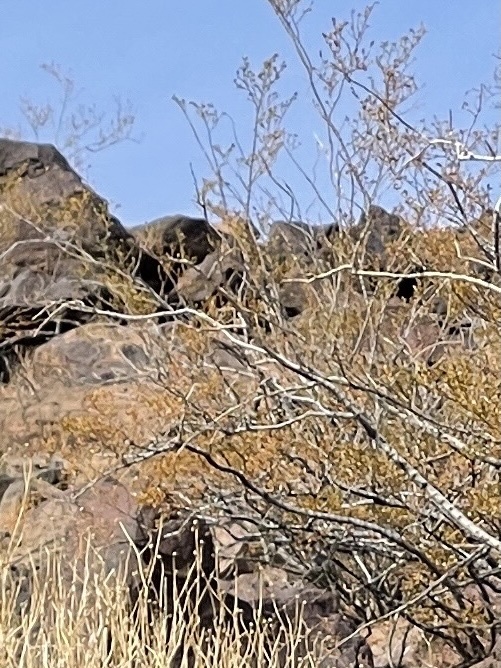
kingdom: Plantae
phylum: Tracheophyta
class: Magnoliopsida
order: Zygophyllales
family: Zygophyllaceae
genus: Larrea
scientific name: Larrea tridentata
